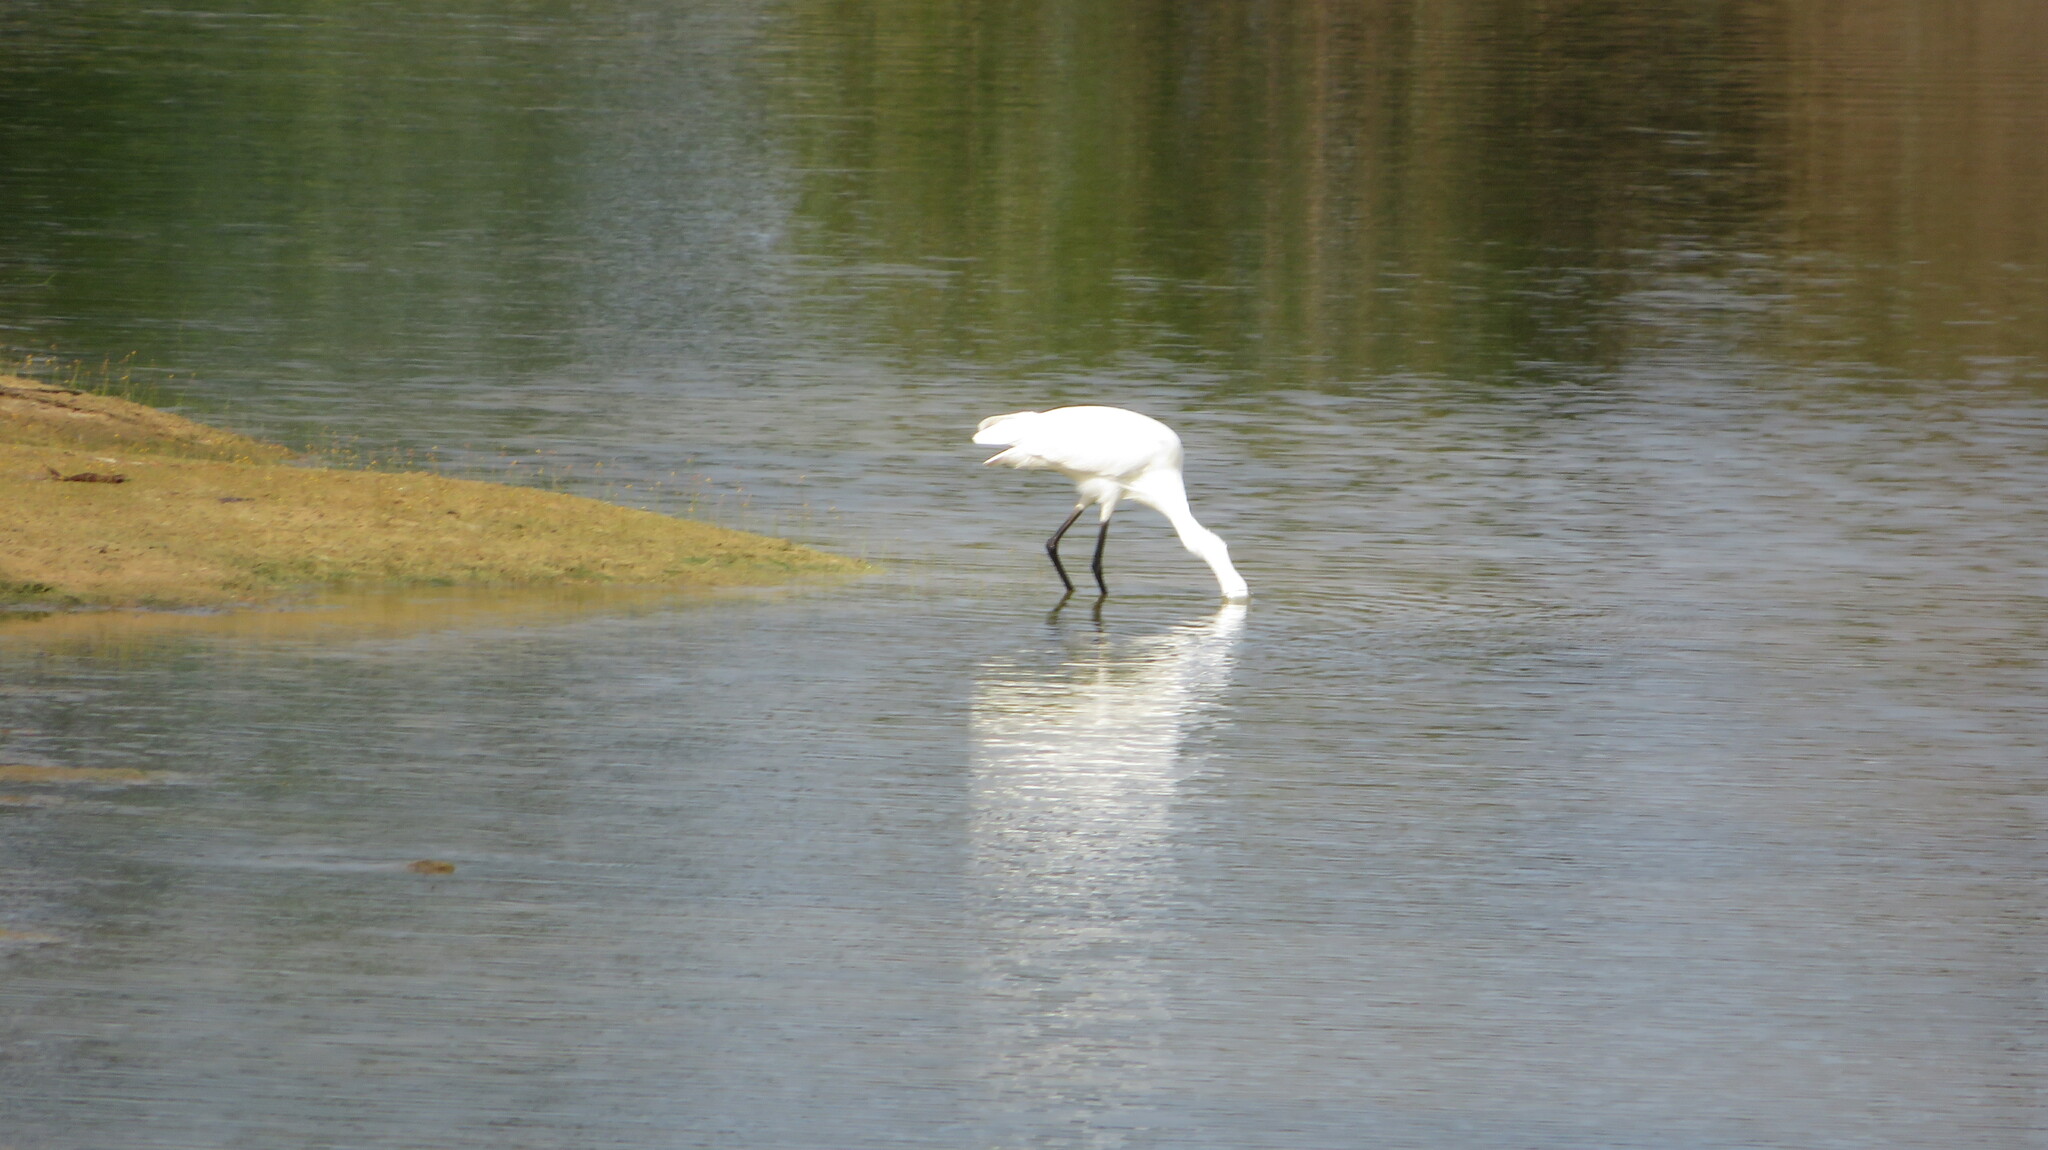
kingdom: Animalia
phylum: Chordata
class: Aves
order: Pelecaniformes
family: Ardeidae
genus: Egretta
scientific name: Egretta garzetta
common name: Little egret
